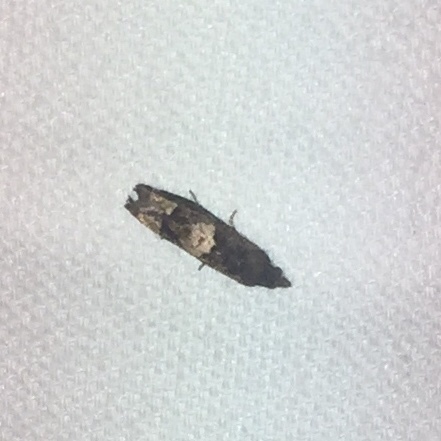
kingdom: Animalia
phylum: Arthropoda
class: Insecta
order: Lepidoptera
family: Tortricidae
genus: Eucosma
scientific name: Eucosma parmatana
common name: Aster eucosma moth
